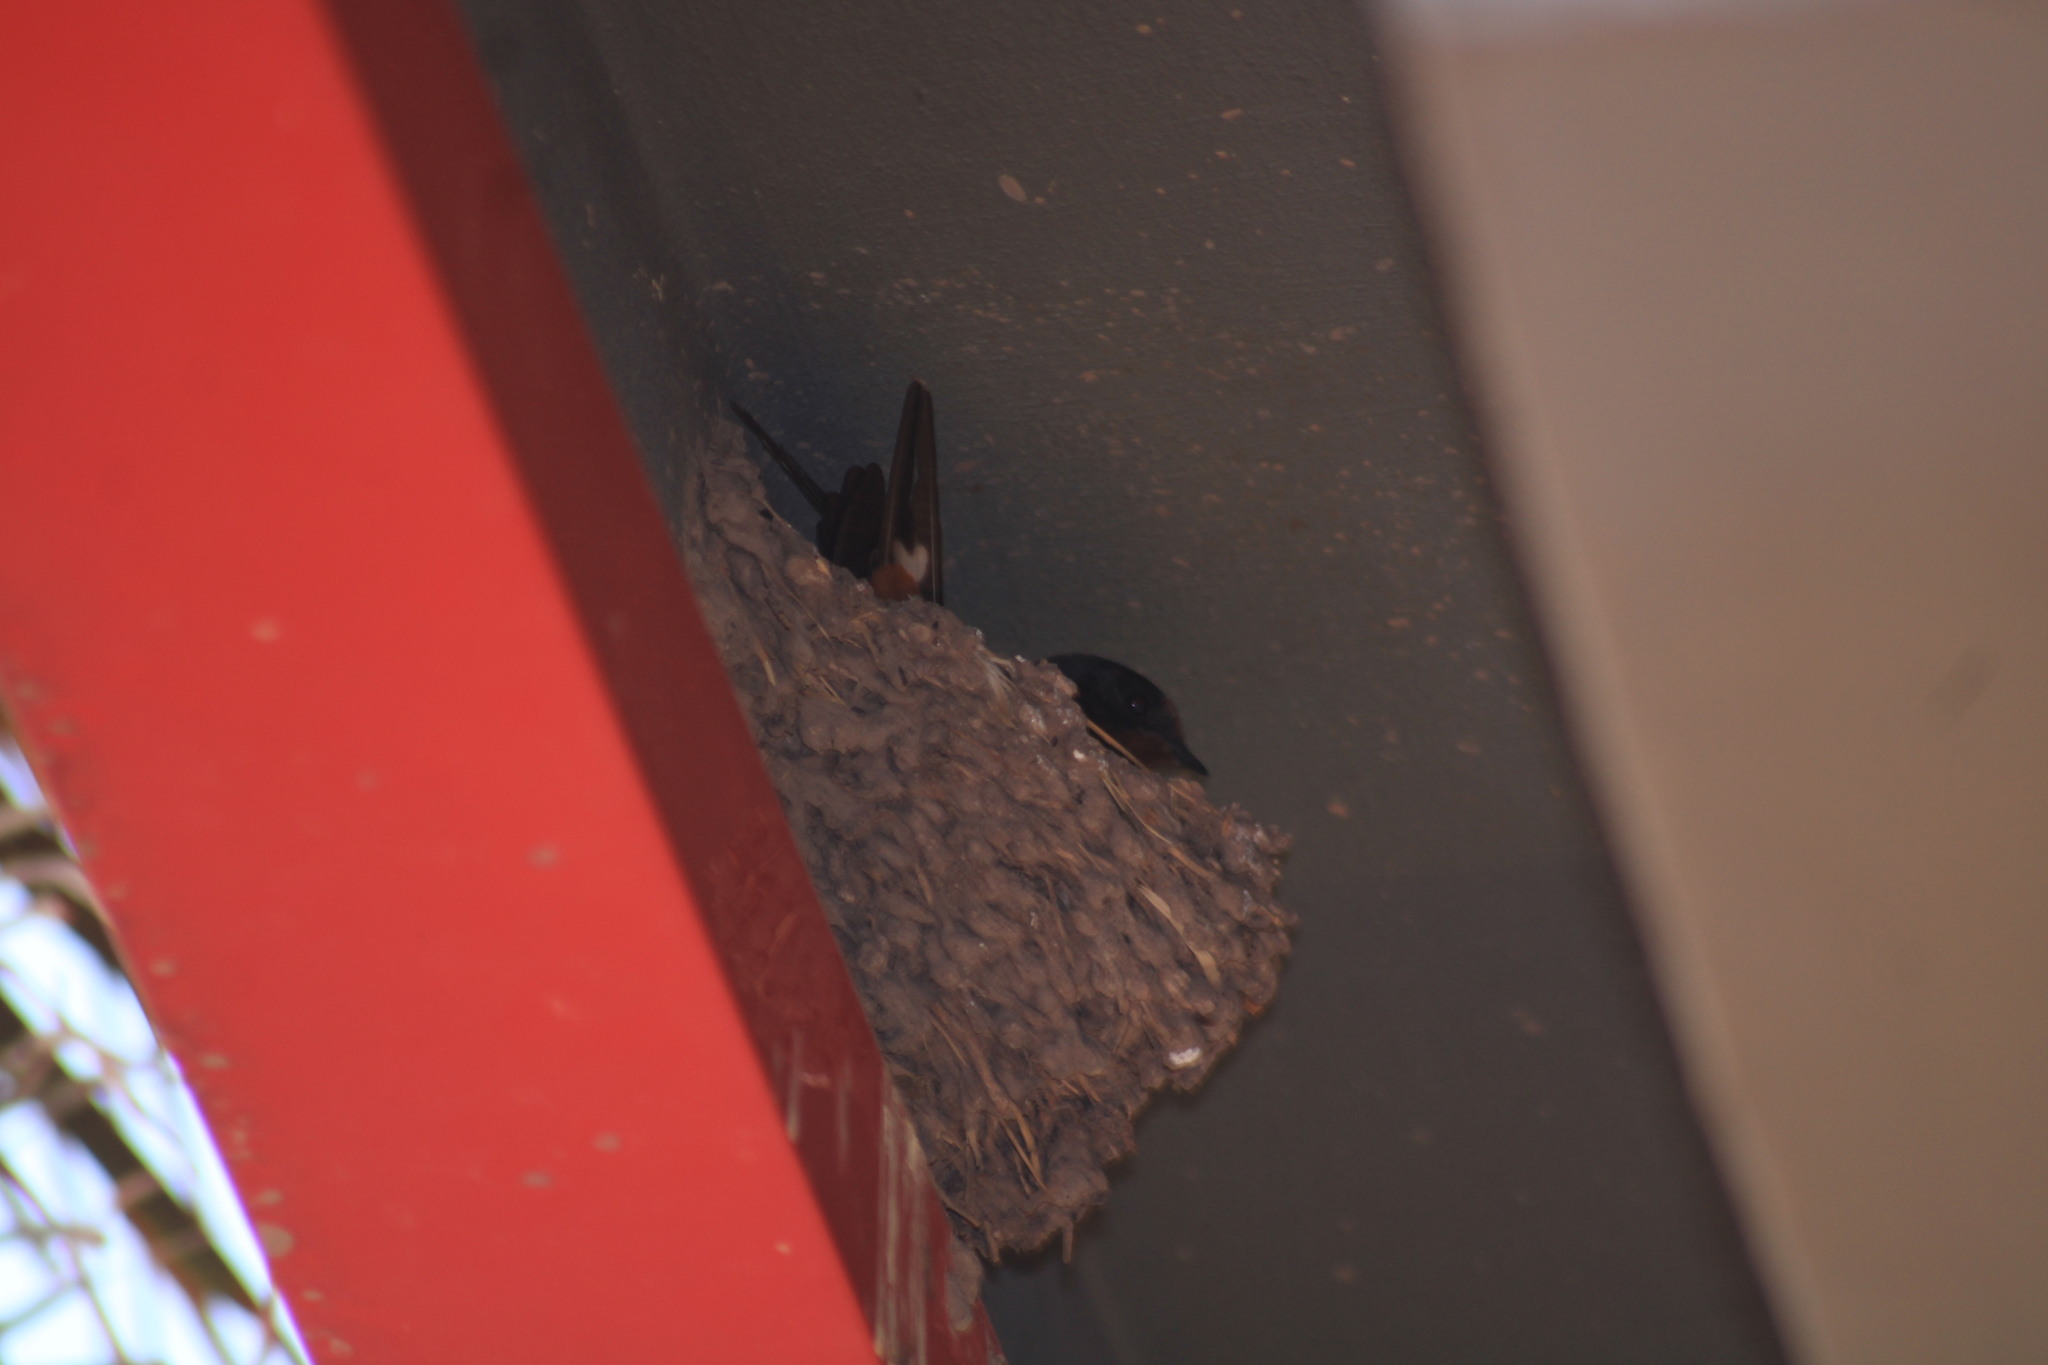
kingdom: Animalia
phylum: Chordata
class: Aves
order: Passeriformes
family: Hirundinidae
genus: Hirundo
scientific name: Hirundo rustica
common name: Barn swallow
